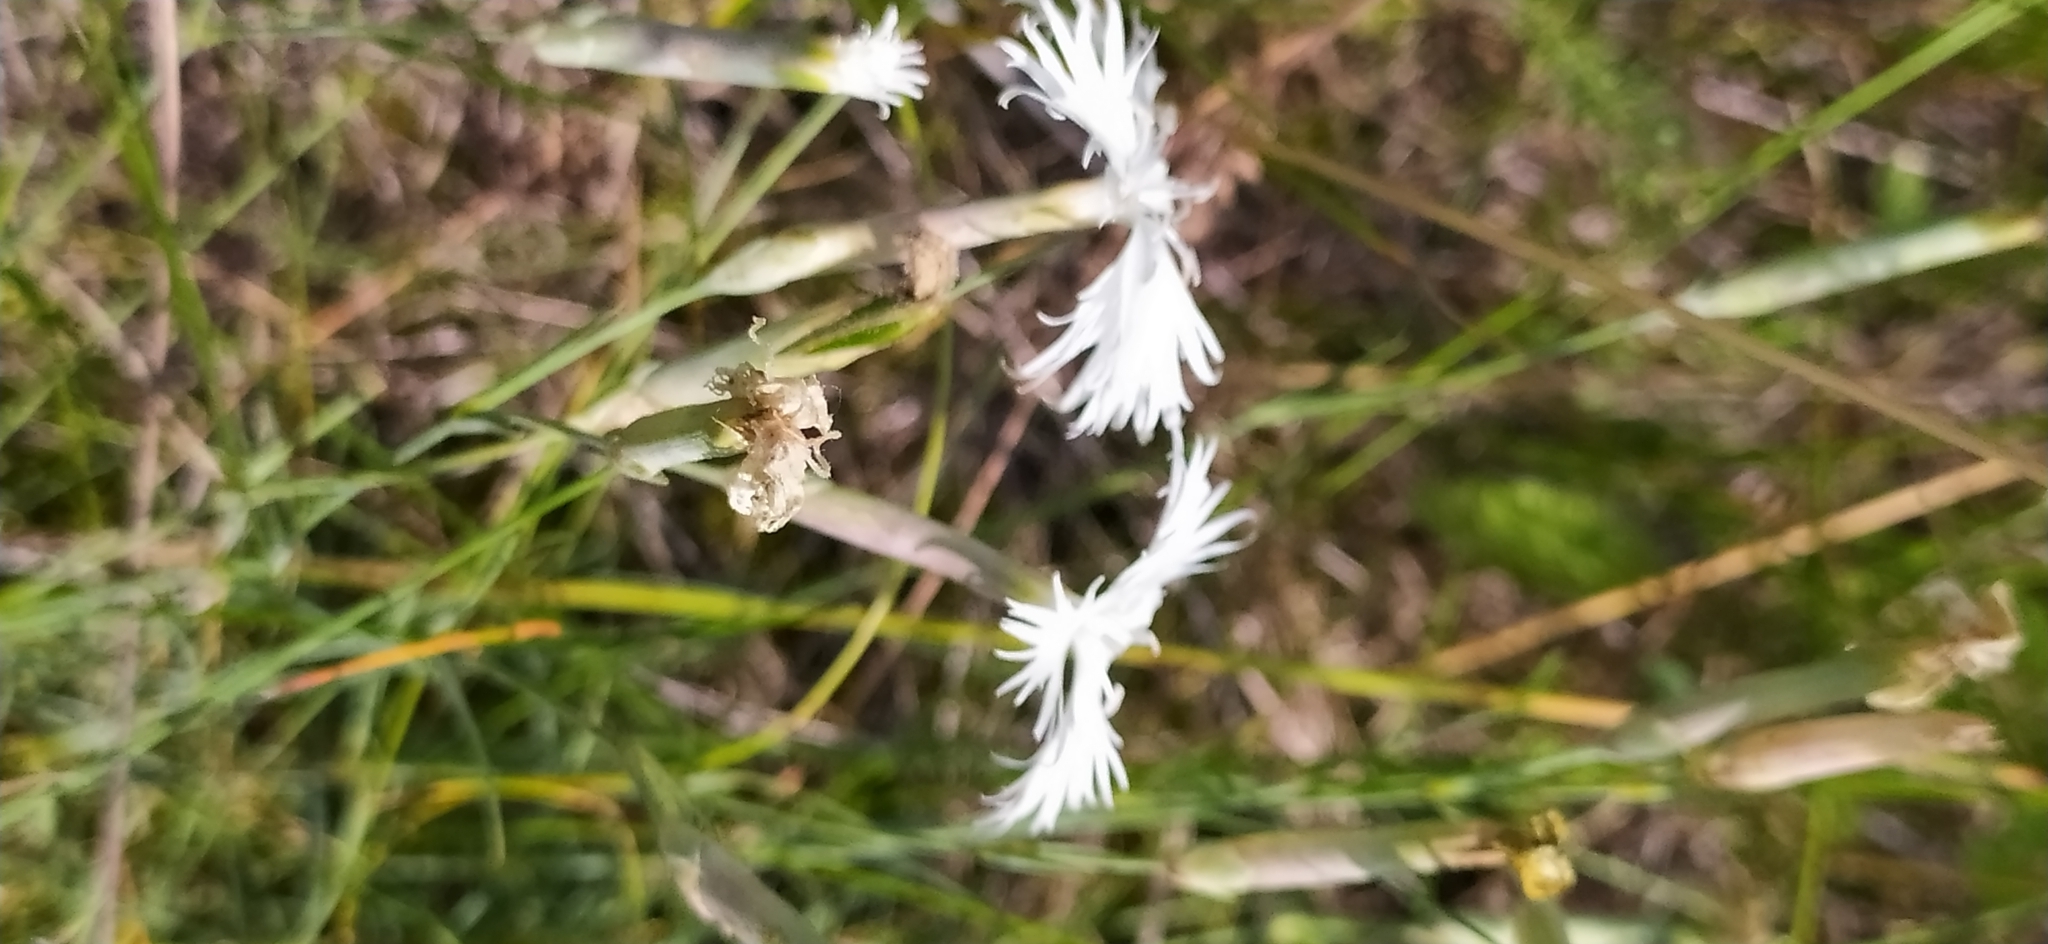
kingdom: Plantae
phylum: Tracheophyta
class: Magnoliopsida
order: Caryophyllales
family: Caryophyllaceae
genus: Dianthus
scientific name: Dianthus acicularis
